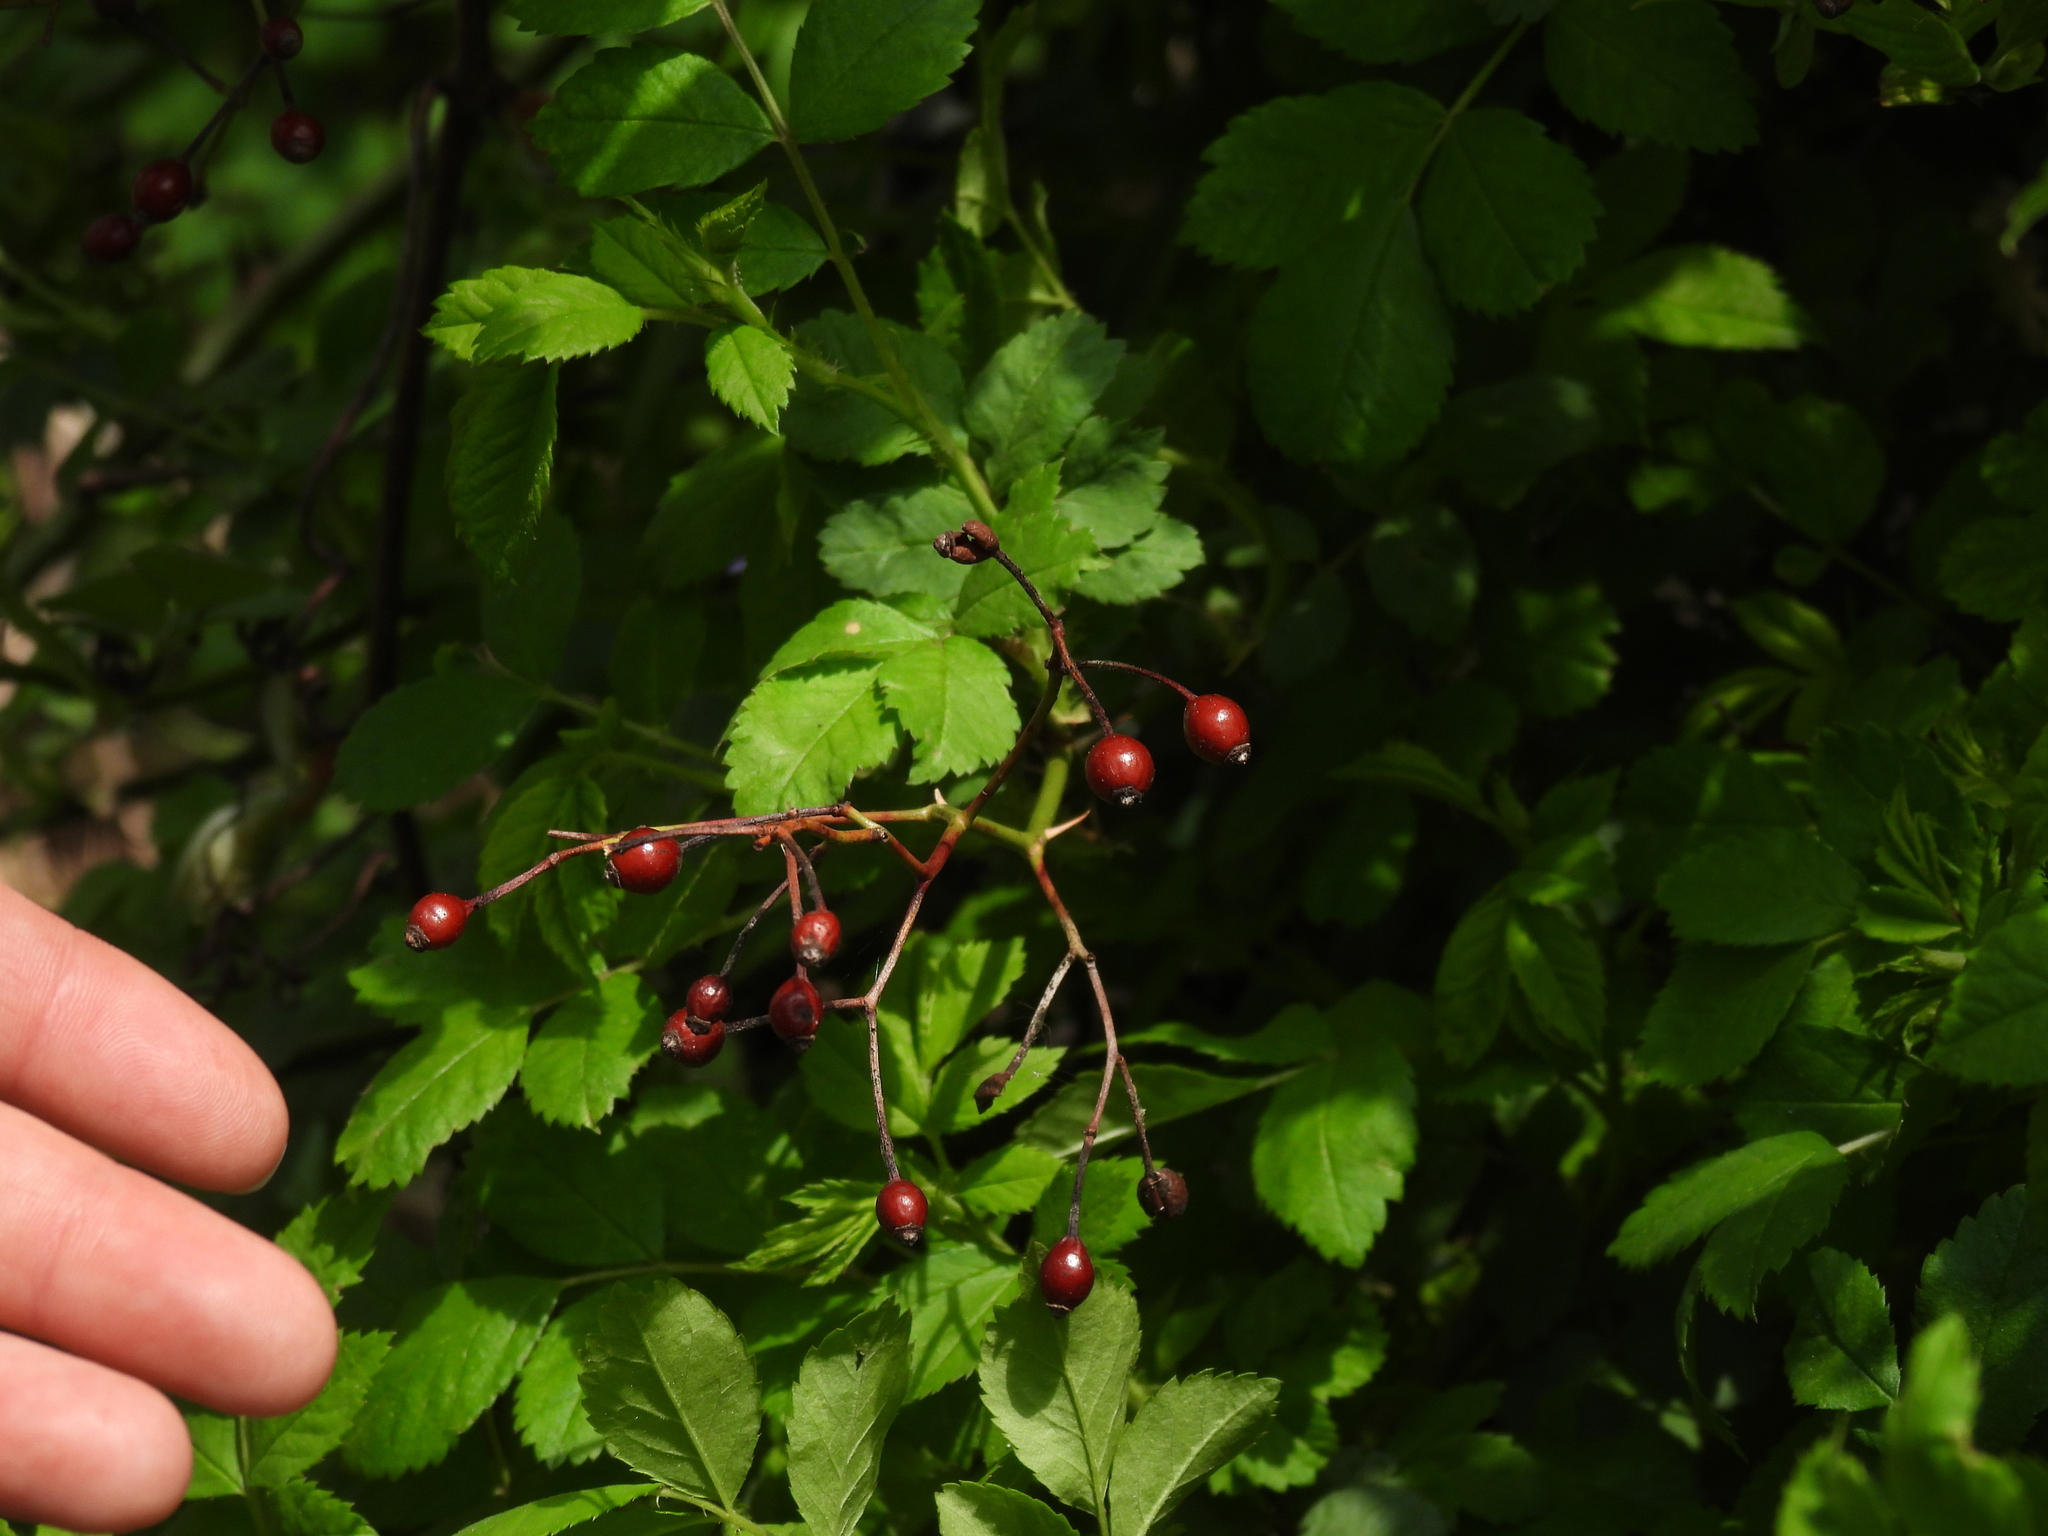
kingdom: Plantae
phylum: Tracheophyta
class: Magnoliopsida
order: Rosales
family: Rosaceae
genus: Rosa
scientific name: Rosa multiflora
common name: Multiflora rose
